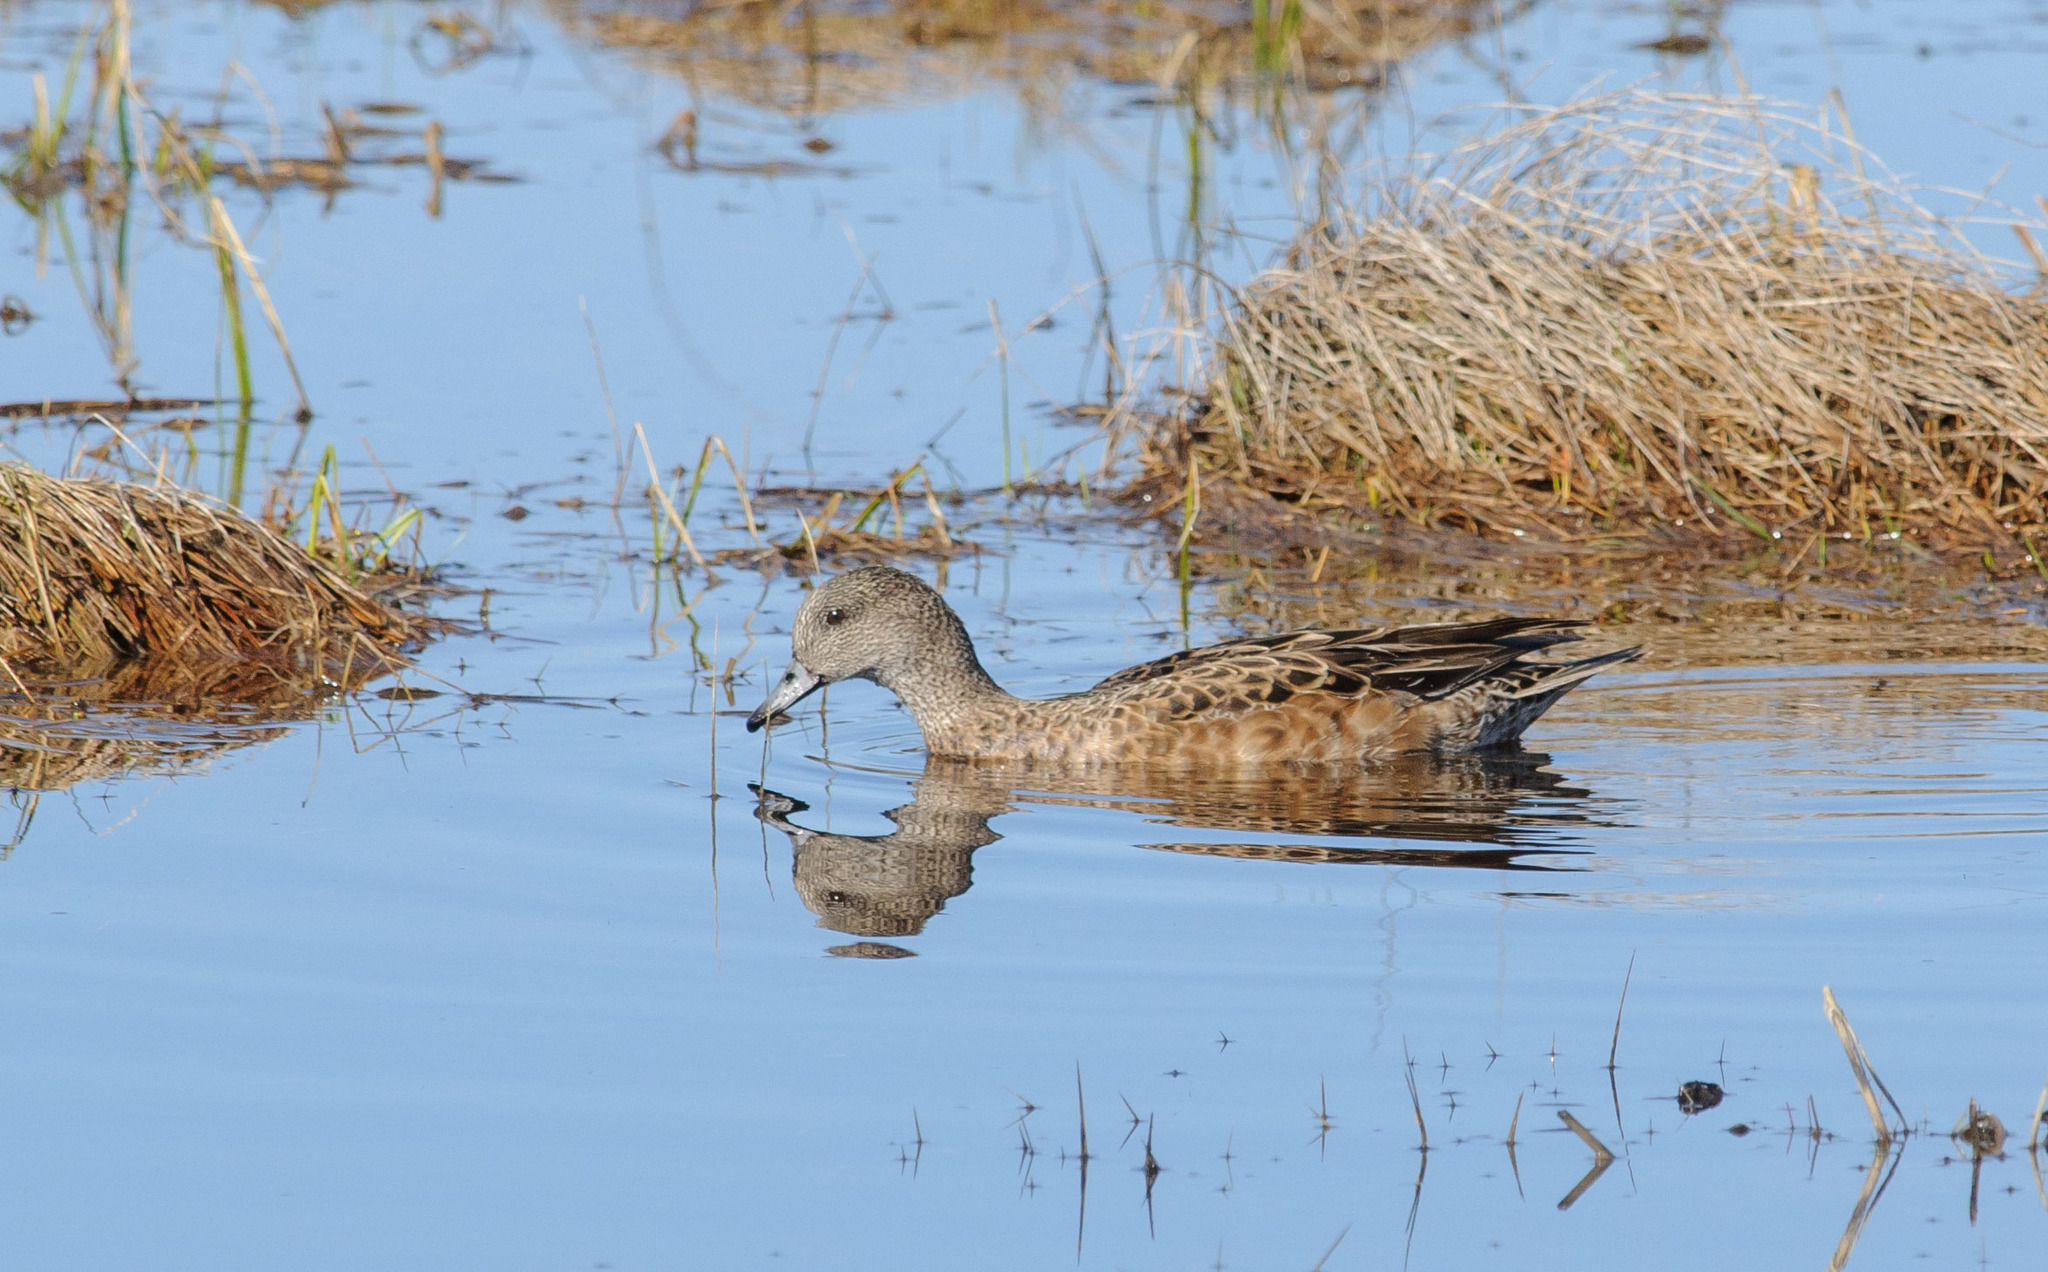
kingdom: Animalia
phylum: Chordata
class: Aves
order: Anseriformes
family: Anatidae
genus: Mareca
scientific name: Mareca americana
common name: American wigeon
